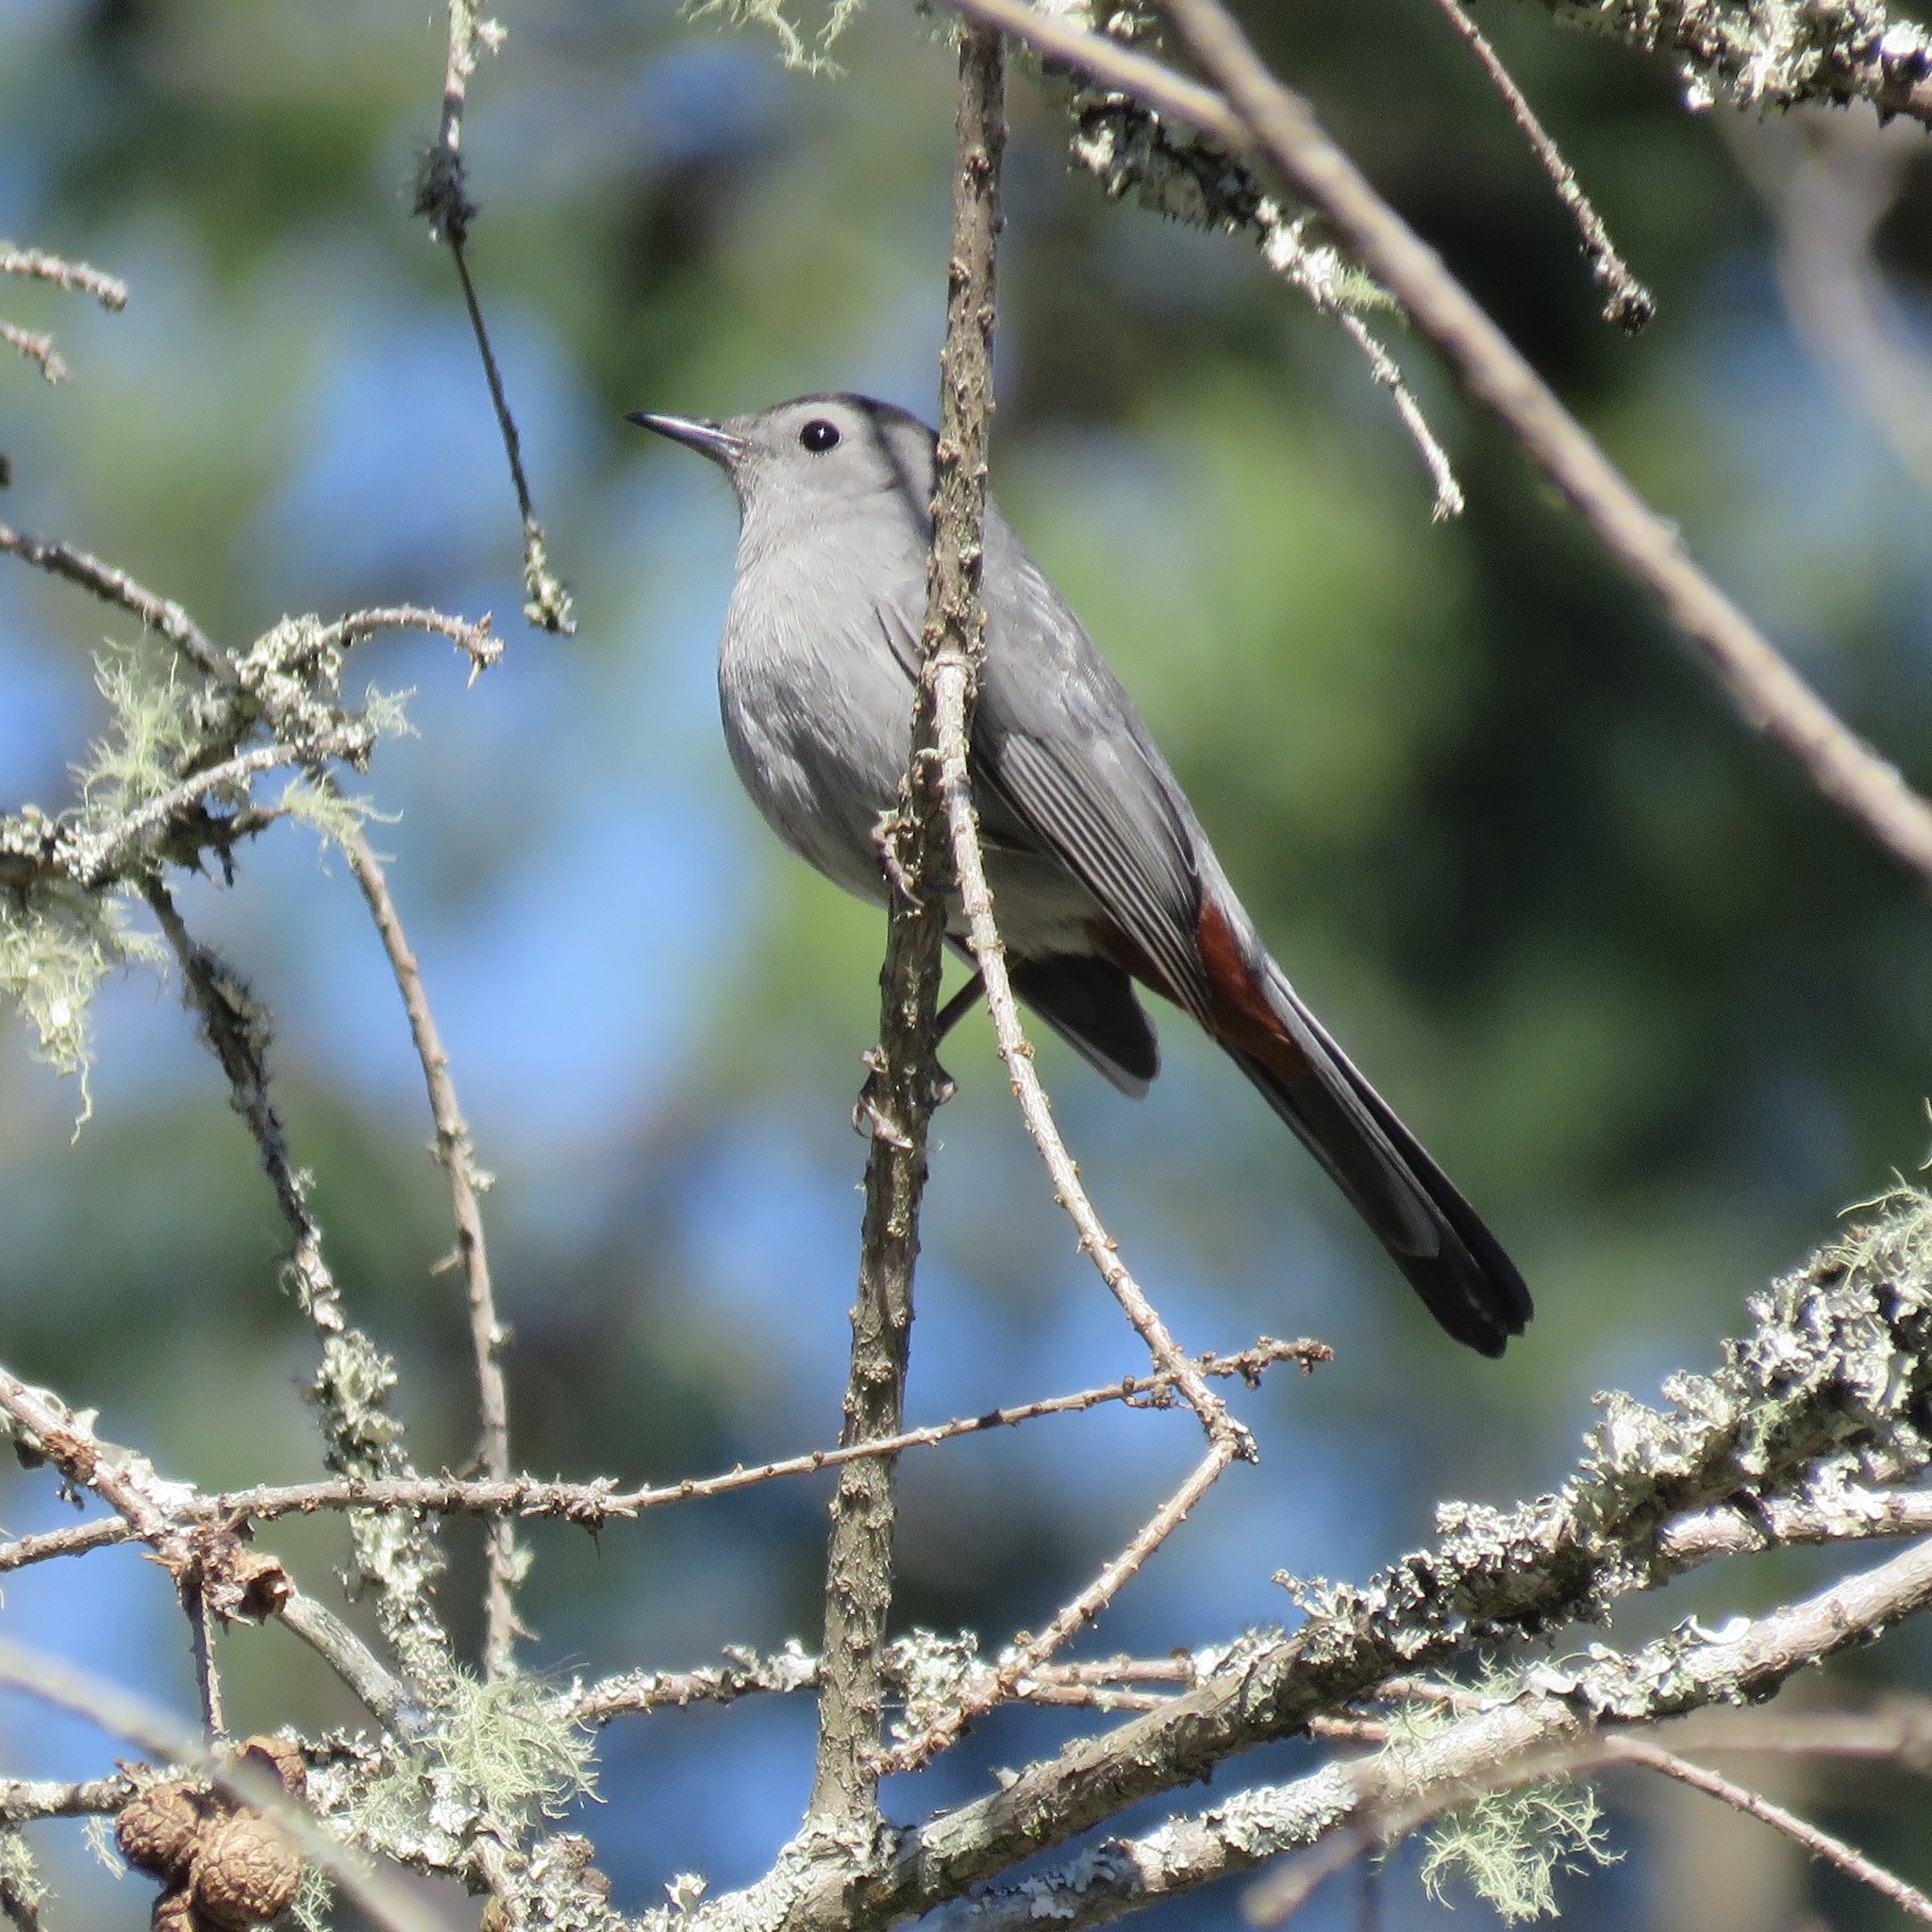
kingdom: Animalia
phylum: Chordata
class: Aves
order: Passeriformes
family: Mimidae
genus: Dumetella
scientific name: Dumetella carolinensis
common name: Gray catbird
